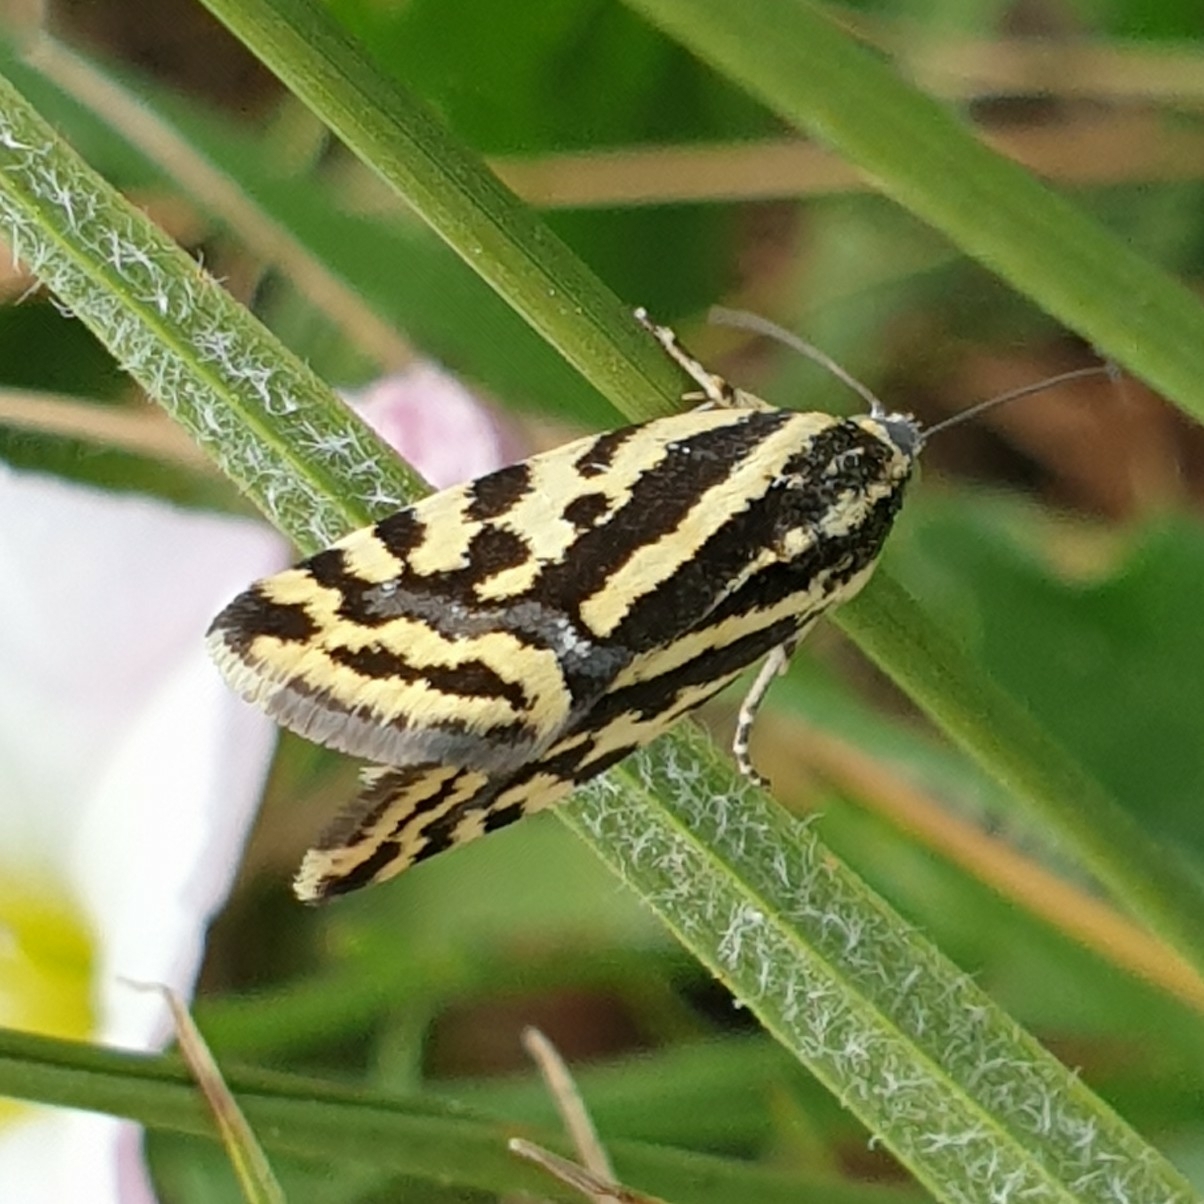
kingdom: Animalia
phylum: Arthropoda
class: Insecta
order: Lepidoptera
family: Noctuidae
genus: Acontia
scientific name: Acontia trabealis
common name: Spotted sulphur
